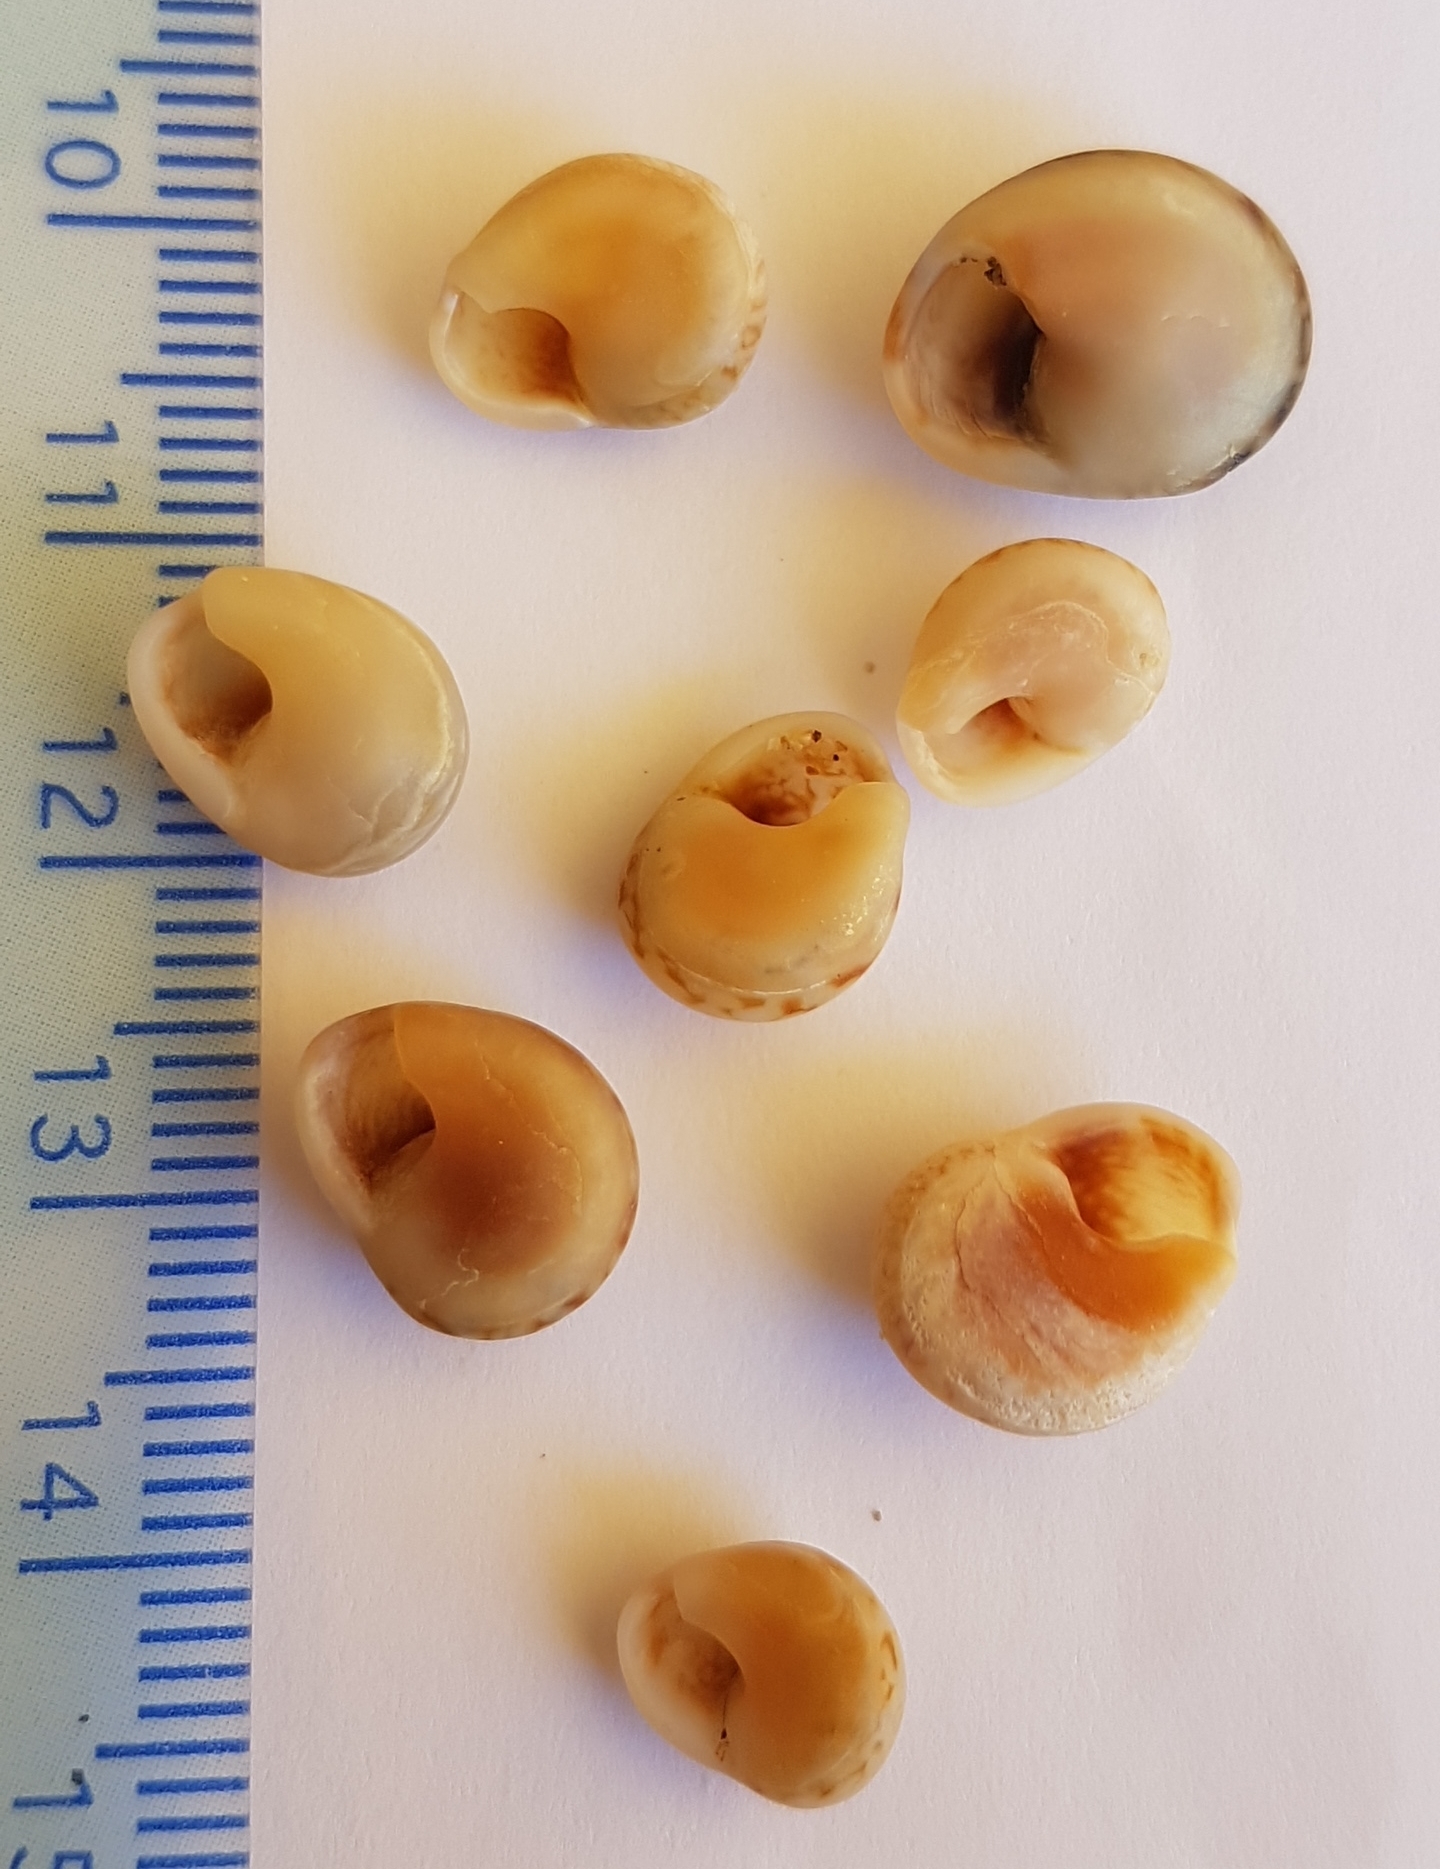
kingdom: Animalia
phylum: Mollusca
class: Gastropoda
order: Neogastropoda
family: Nassariidae
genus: Tritia
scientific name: Tritia neritea
